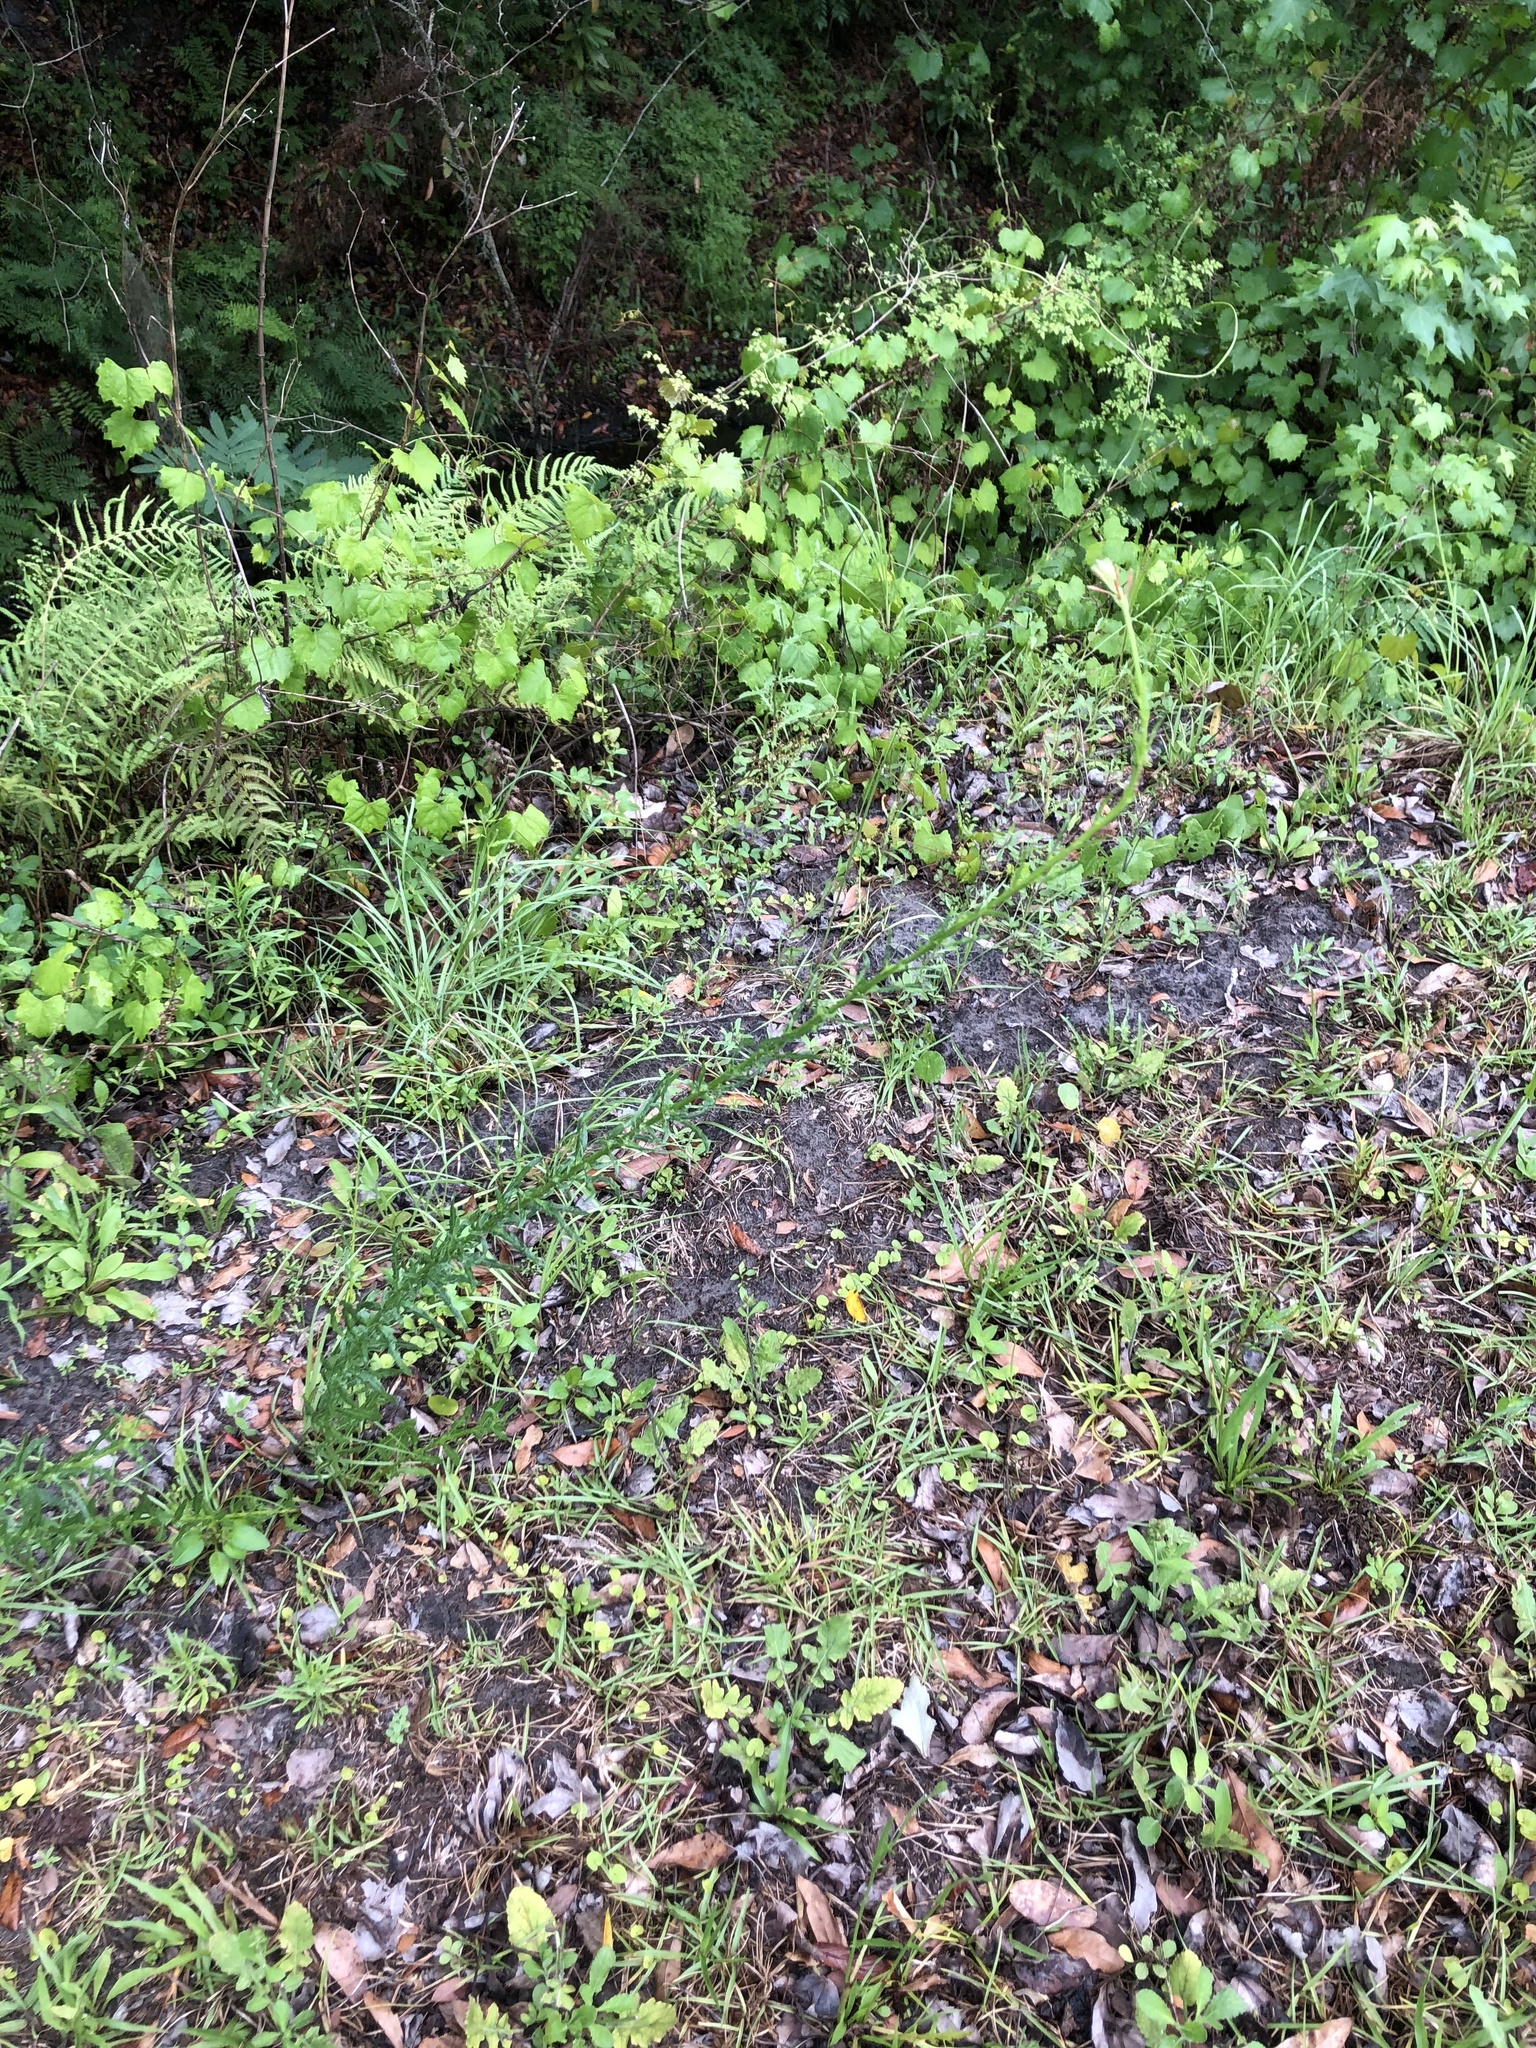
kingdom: Plantae
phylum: Tracheophyta
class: Magnoliopsida
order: Myrtales
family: Onagraceae
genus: Oenothera
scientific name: Oenothera simulans
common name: Southern beeblossom
